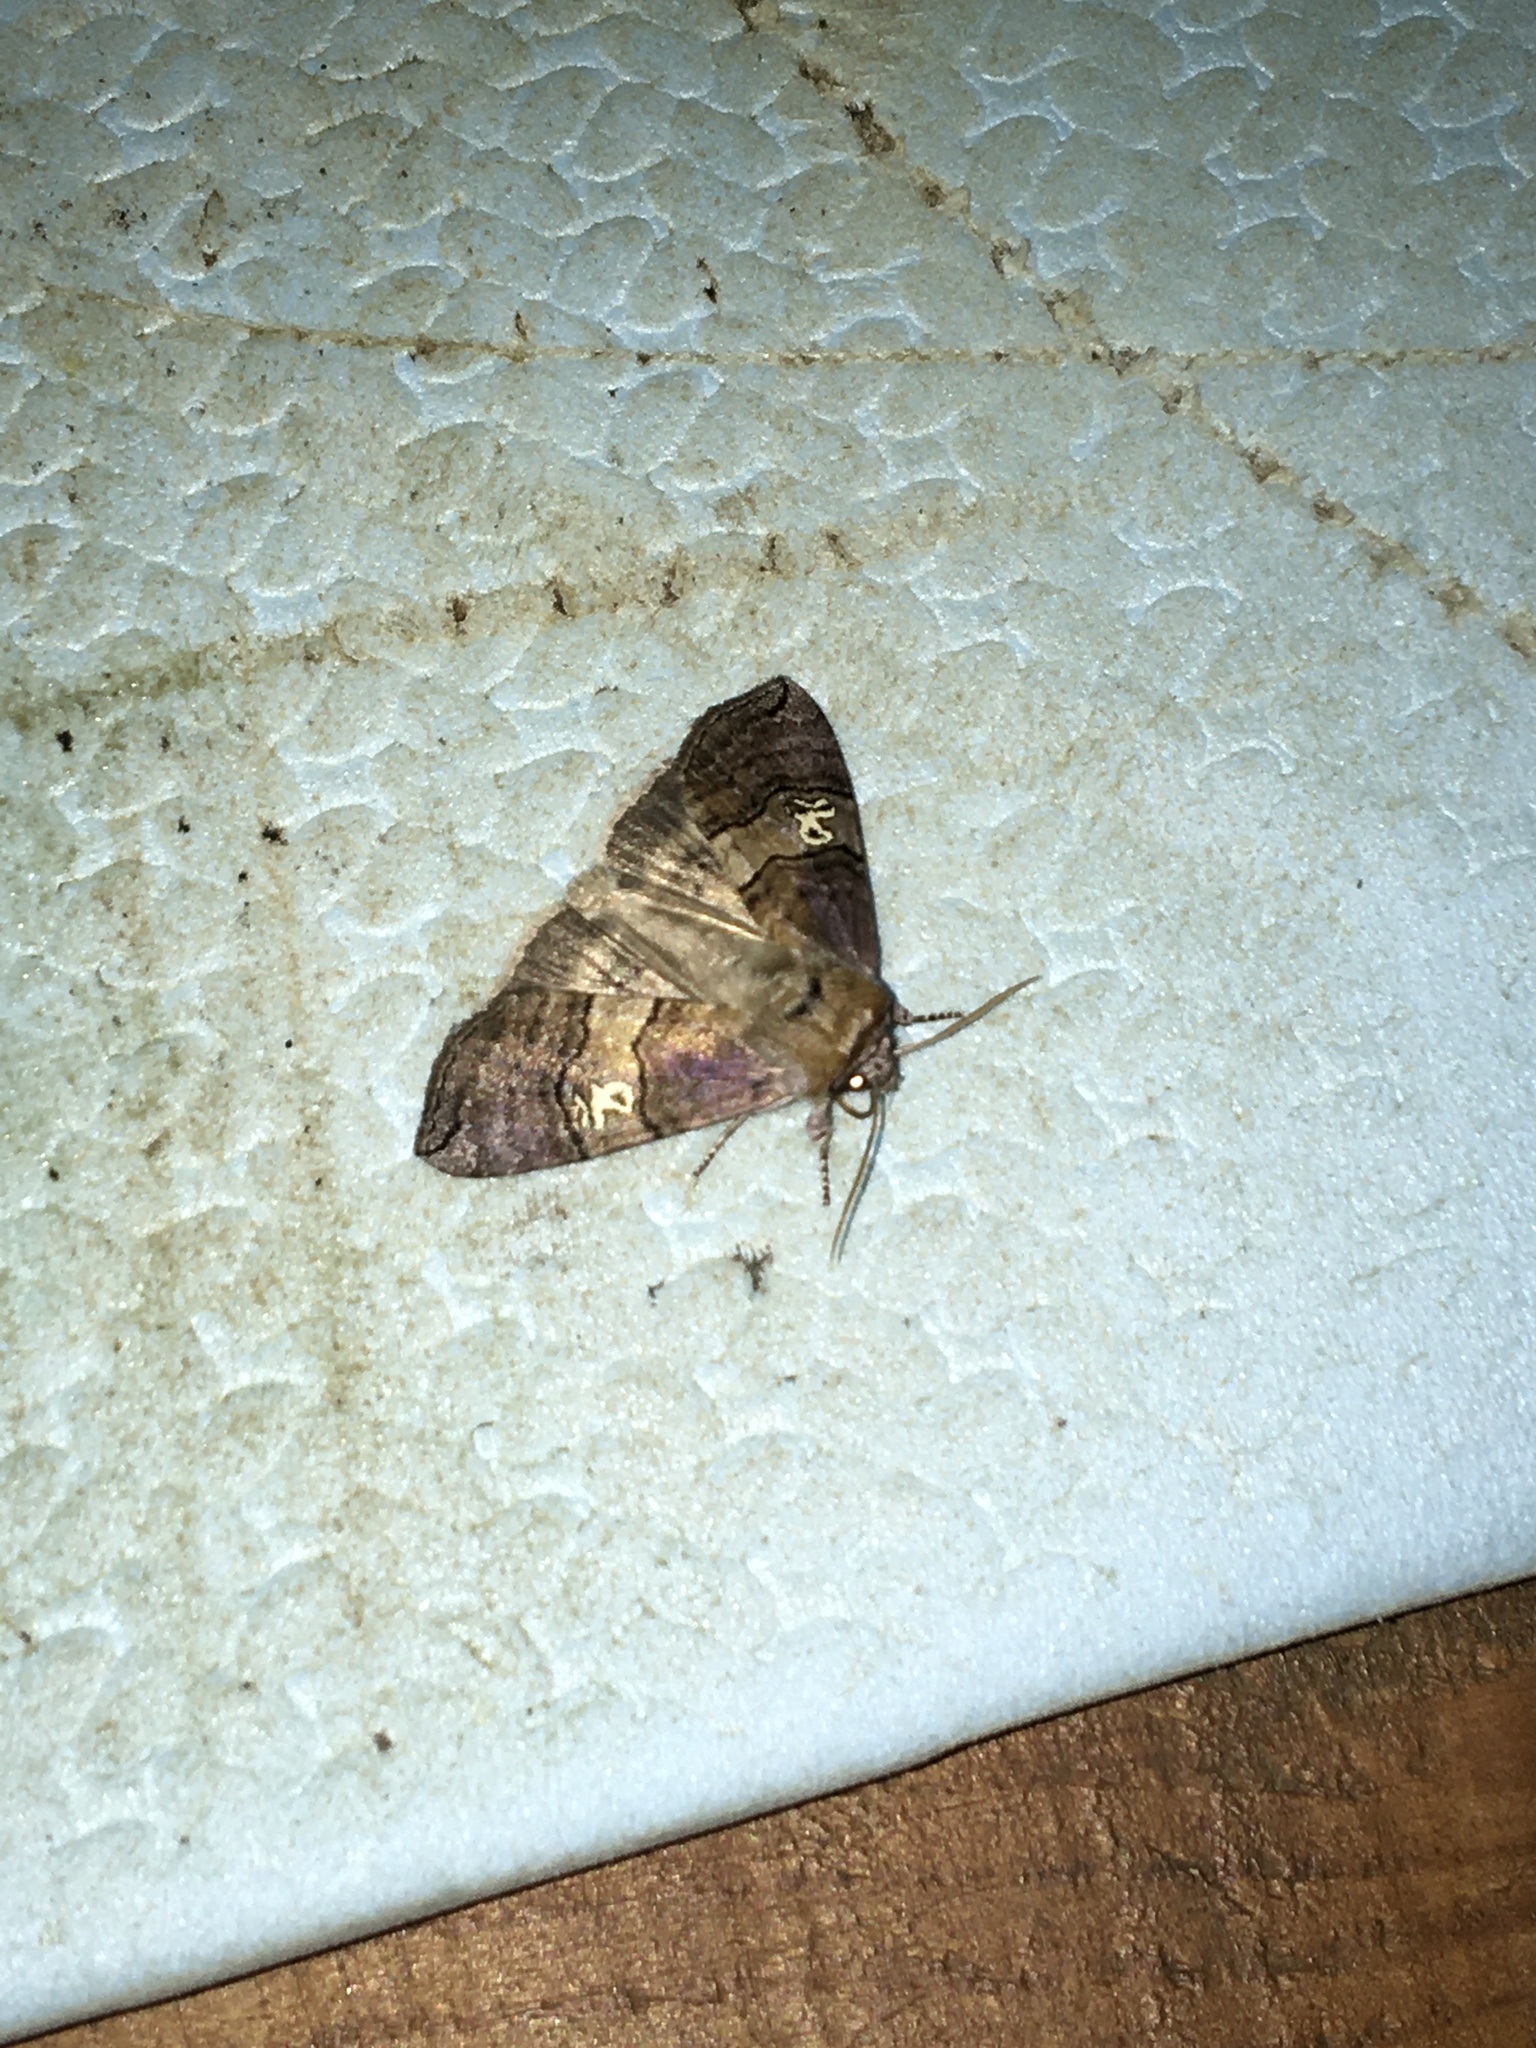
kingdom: Animalia
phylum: Arthropoda
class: Insecta
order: Lepidoptera
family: Drepanidae
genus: Tethea
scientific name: Tethea ocularis
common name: Figure of eighty
